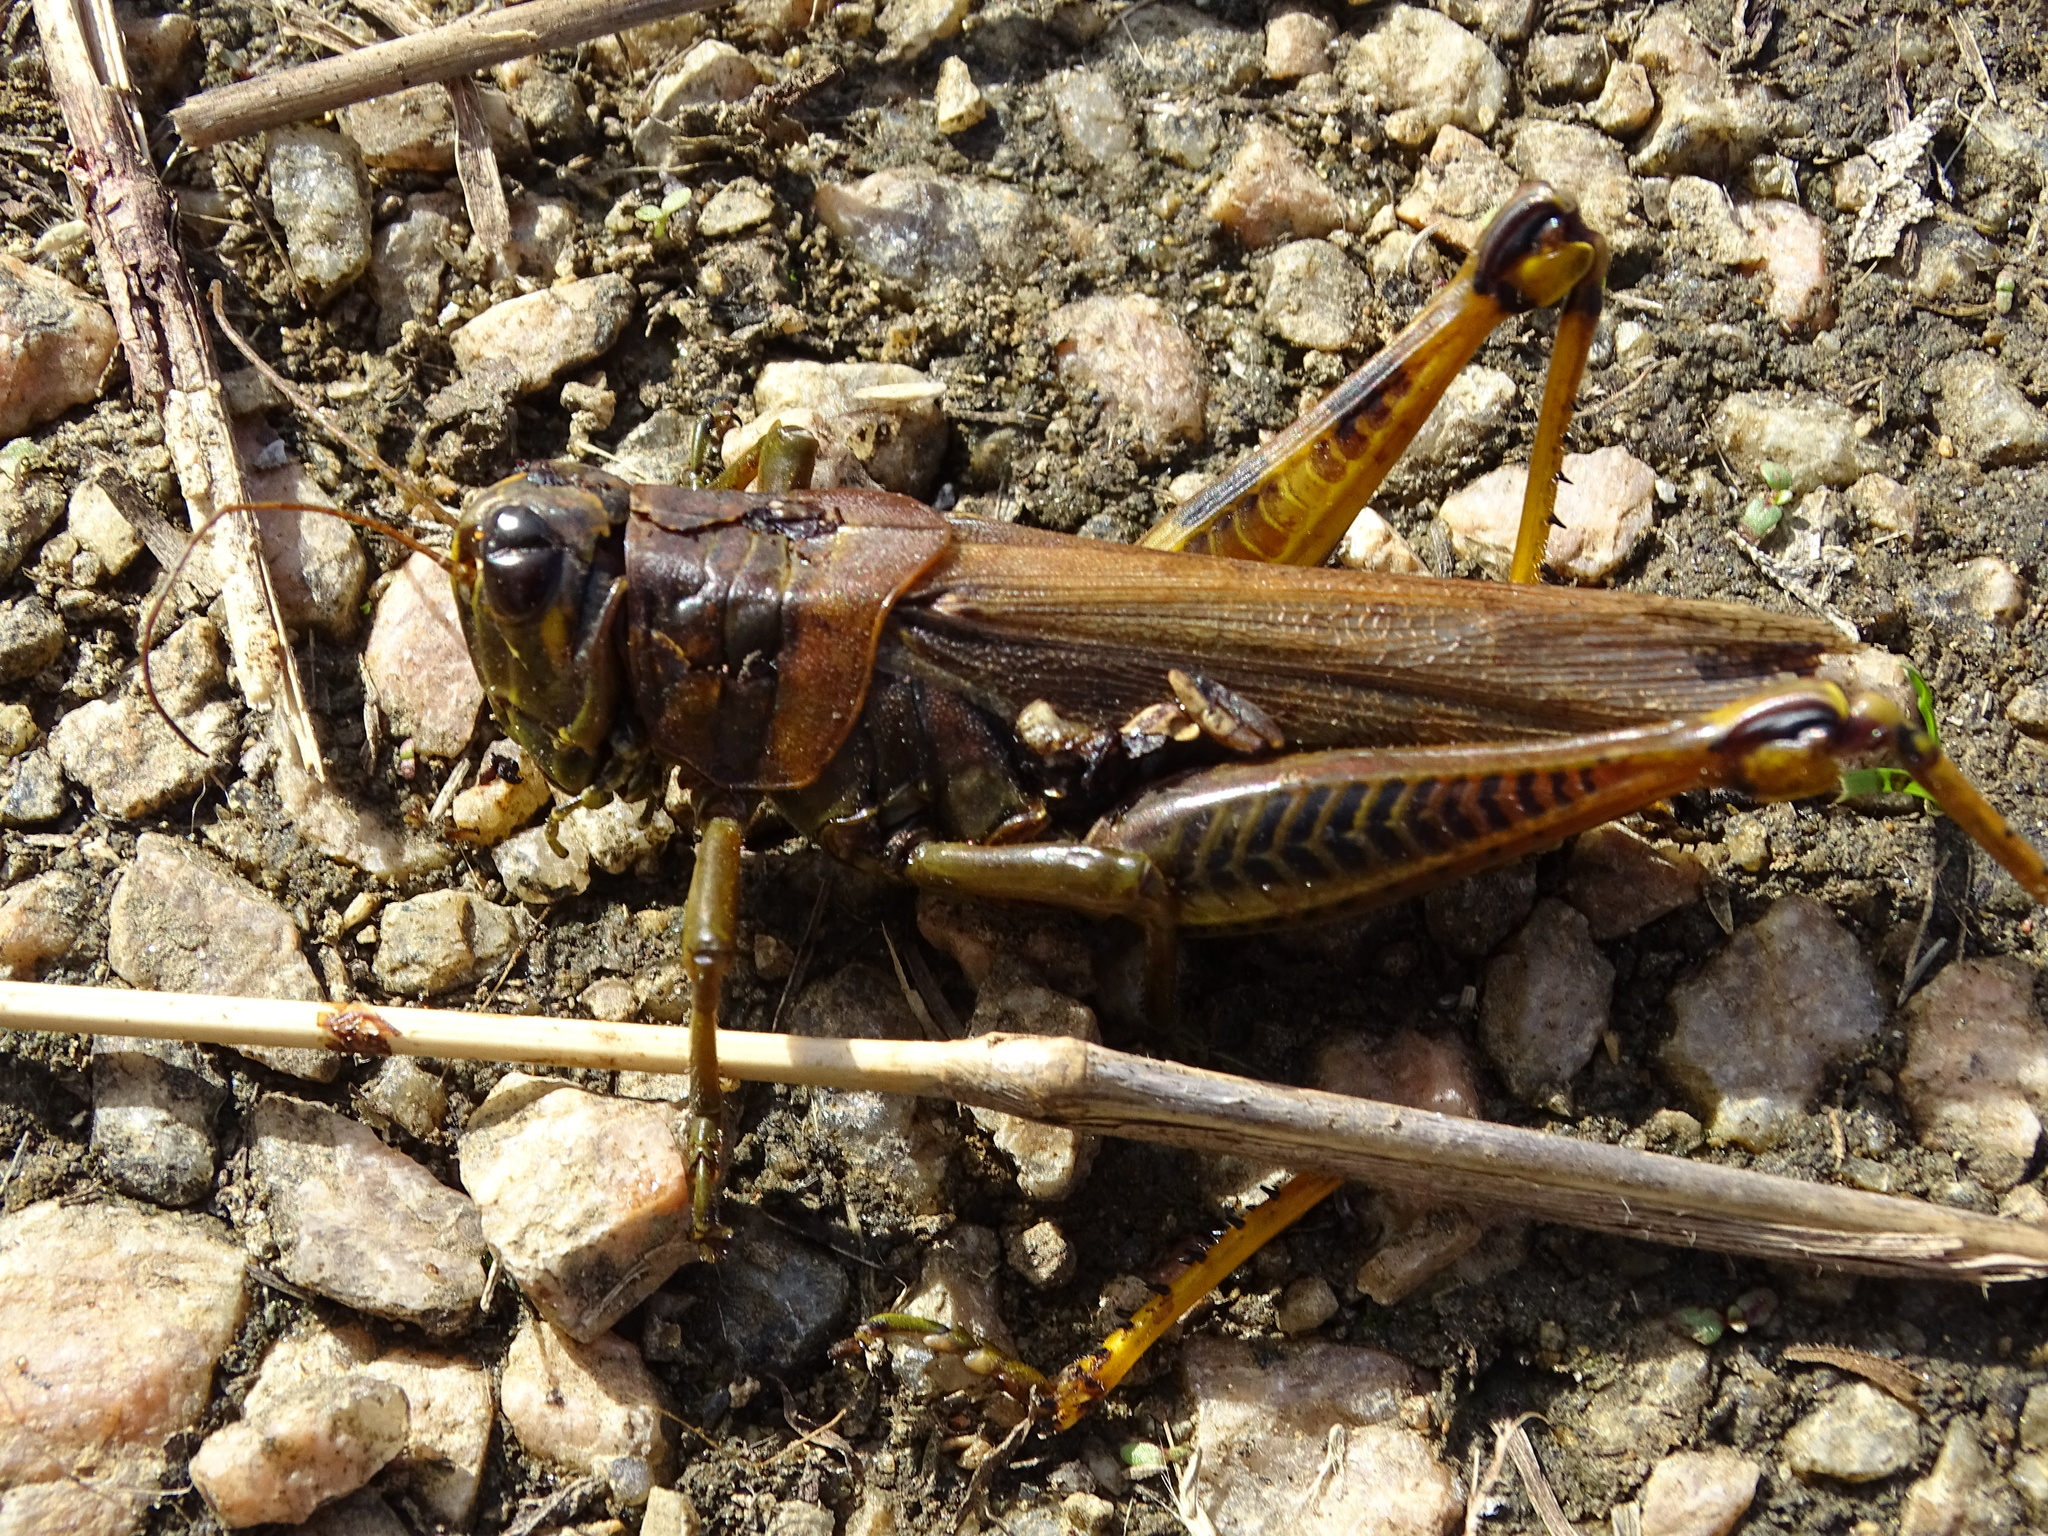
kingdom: Animalia
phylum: Arthropoda
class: Insecta
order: Orthoptera
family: Acrididae
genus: Melanoplus
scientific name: Melanoplus differentialis
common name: Differential grasshopper
